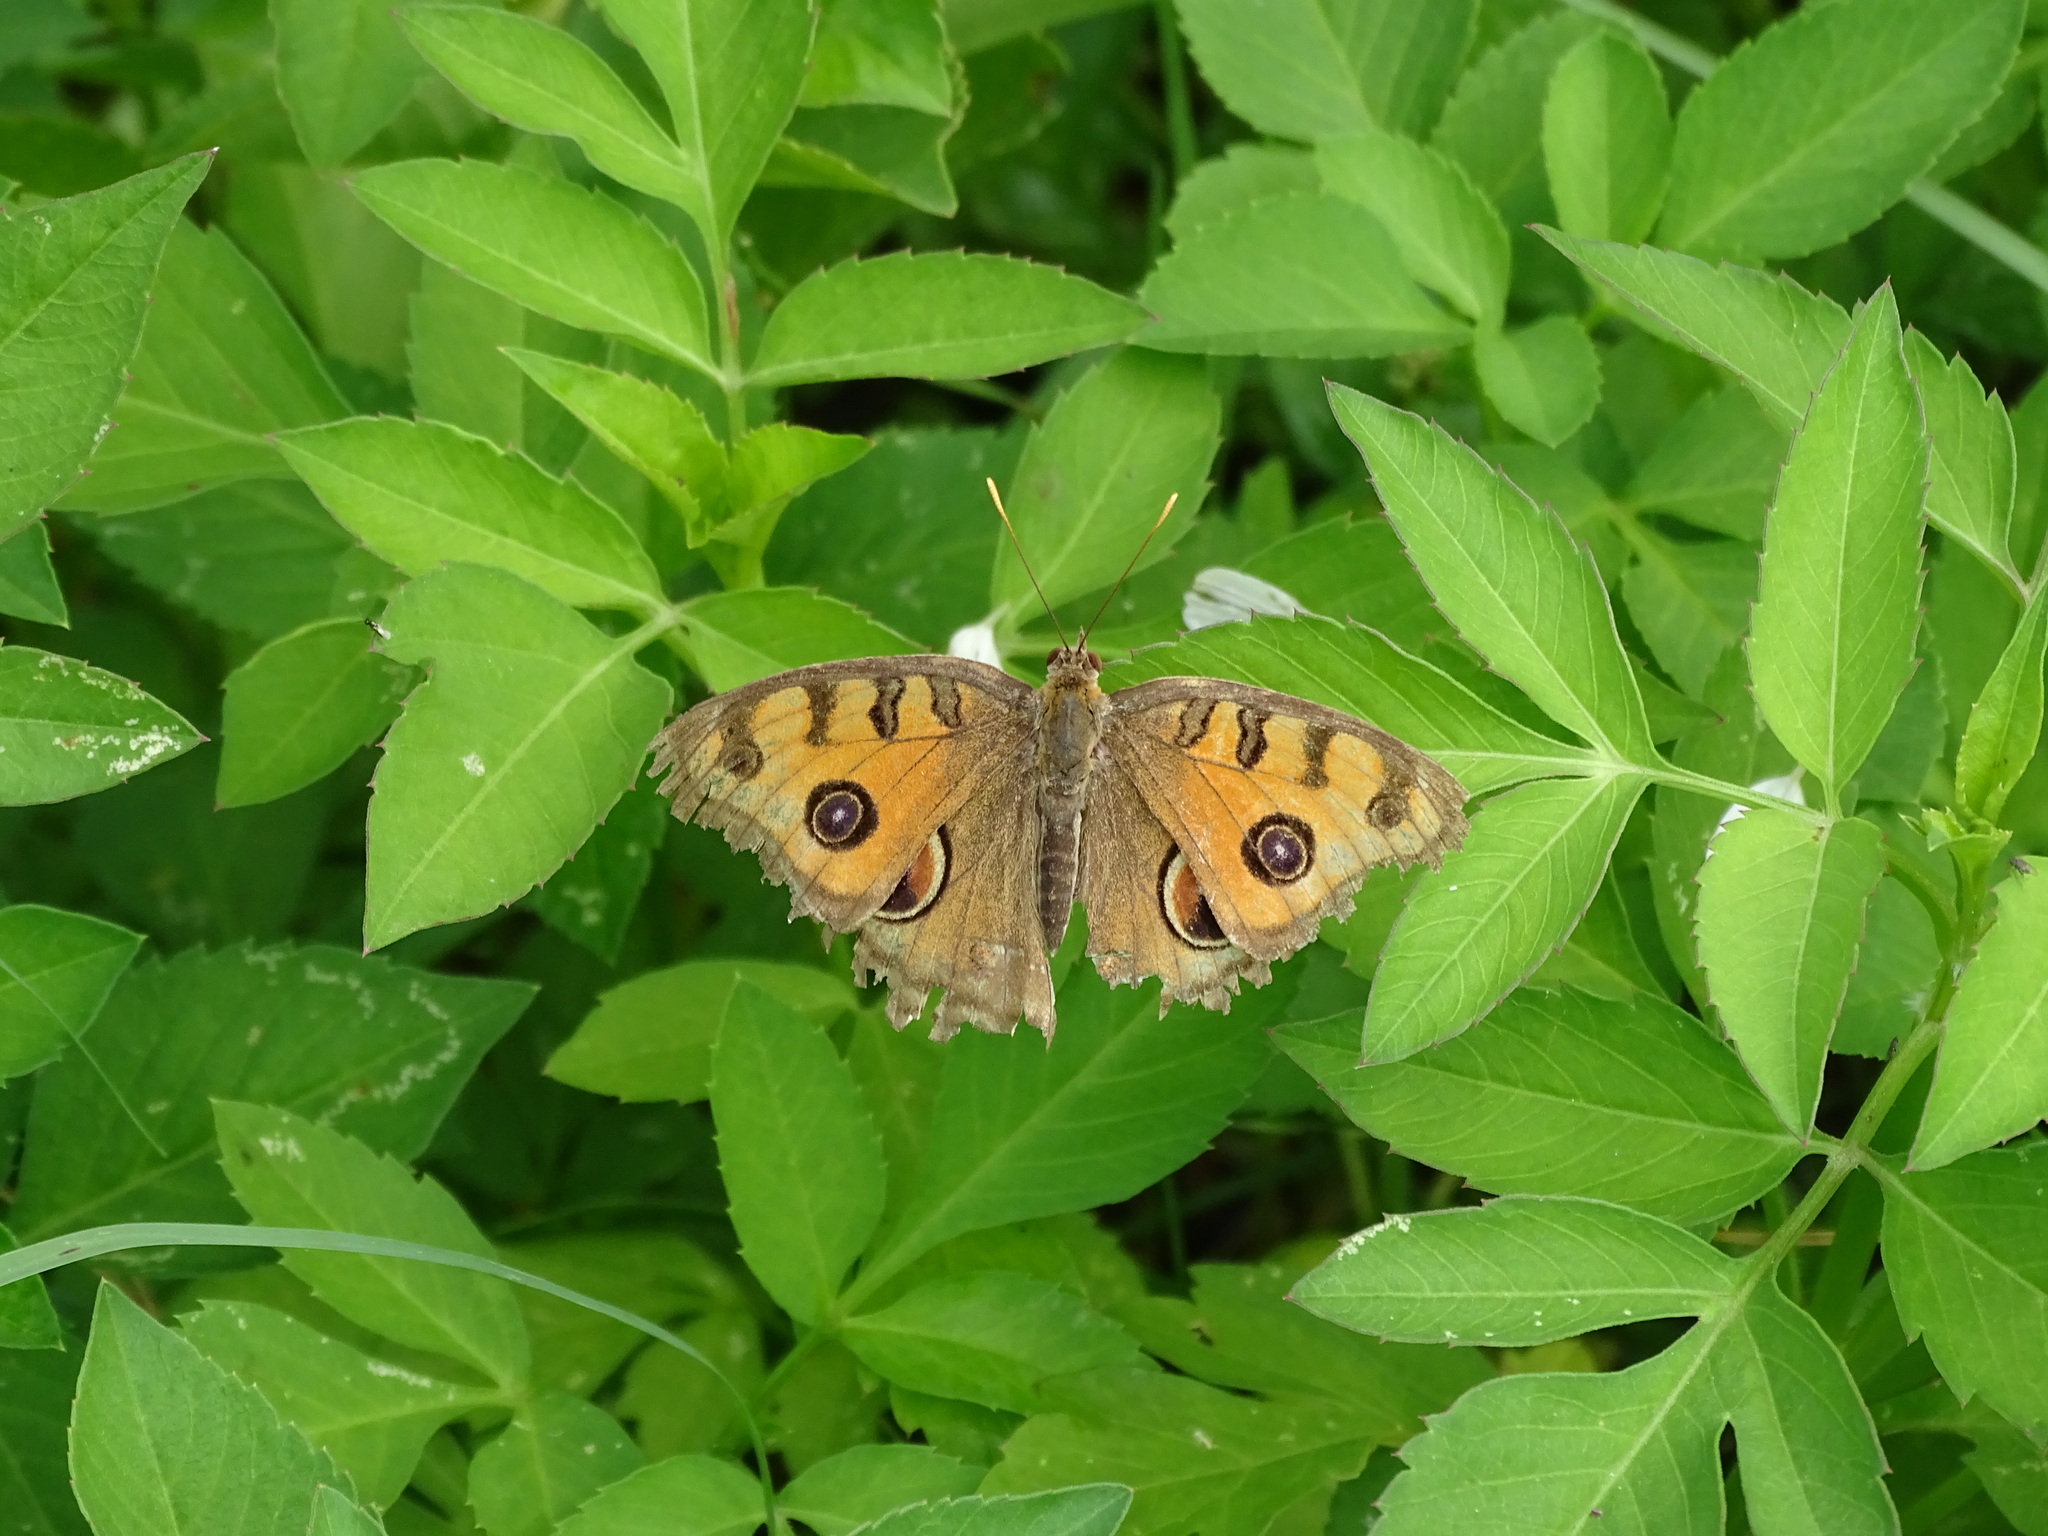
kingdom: Animalia
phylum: Arthropoda
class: Insecta
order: Lepidoptera
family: Nymphalidae
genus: Junonia
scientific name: Junonia almana
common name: Peacock pansy
